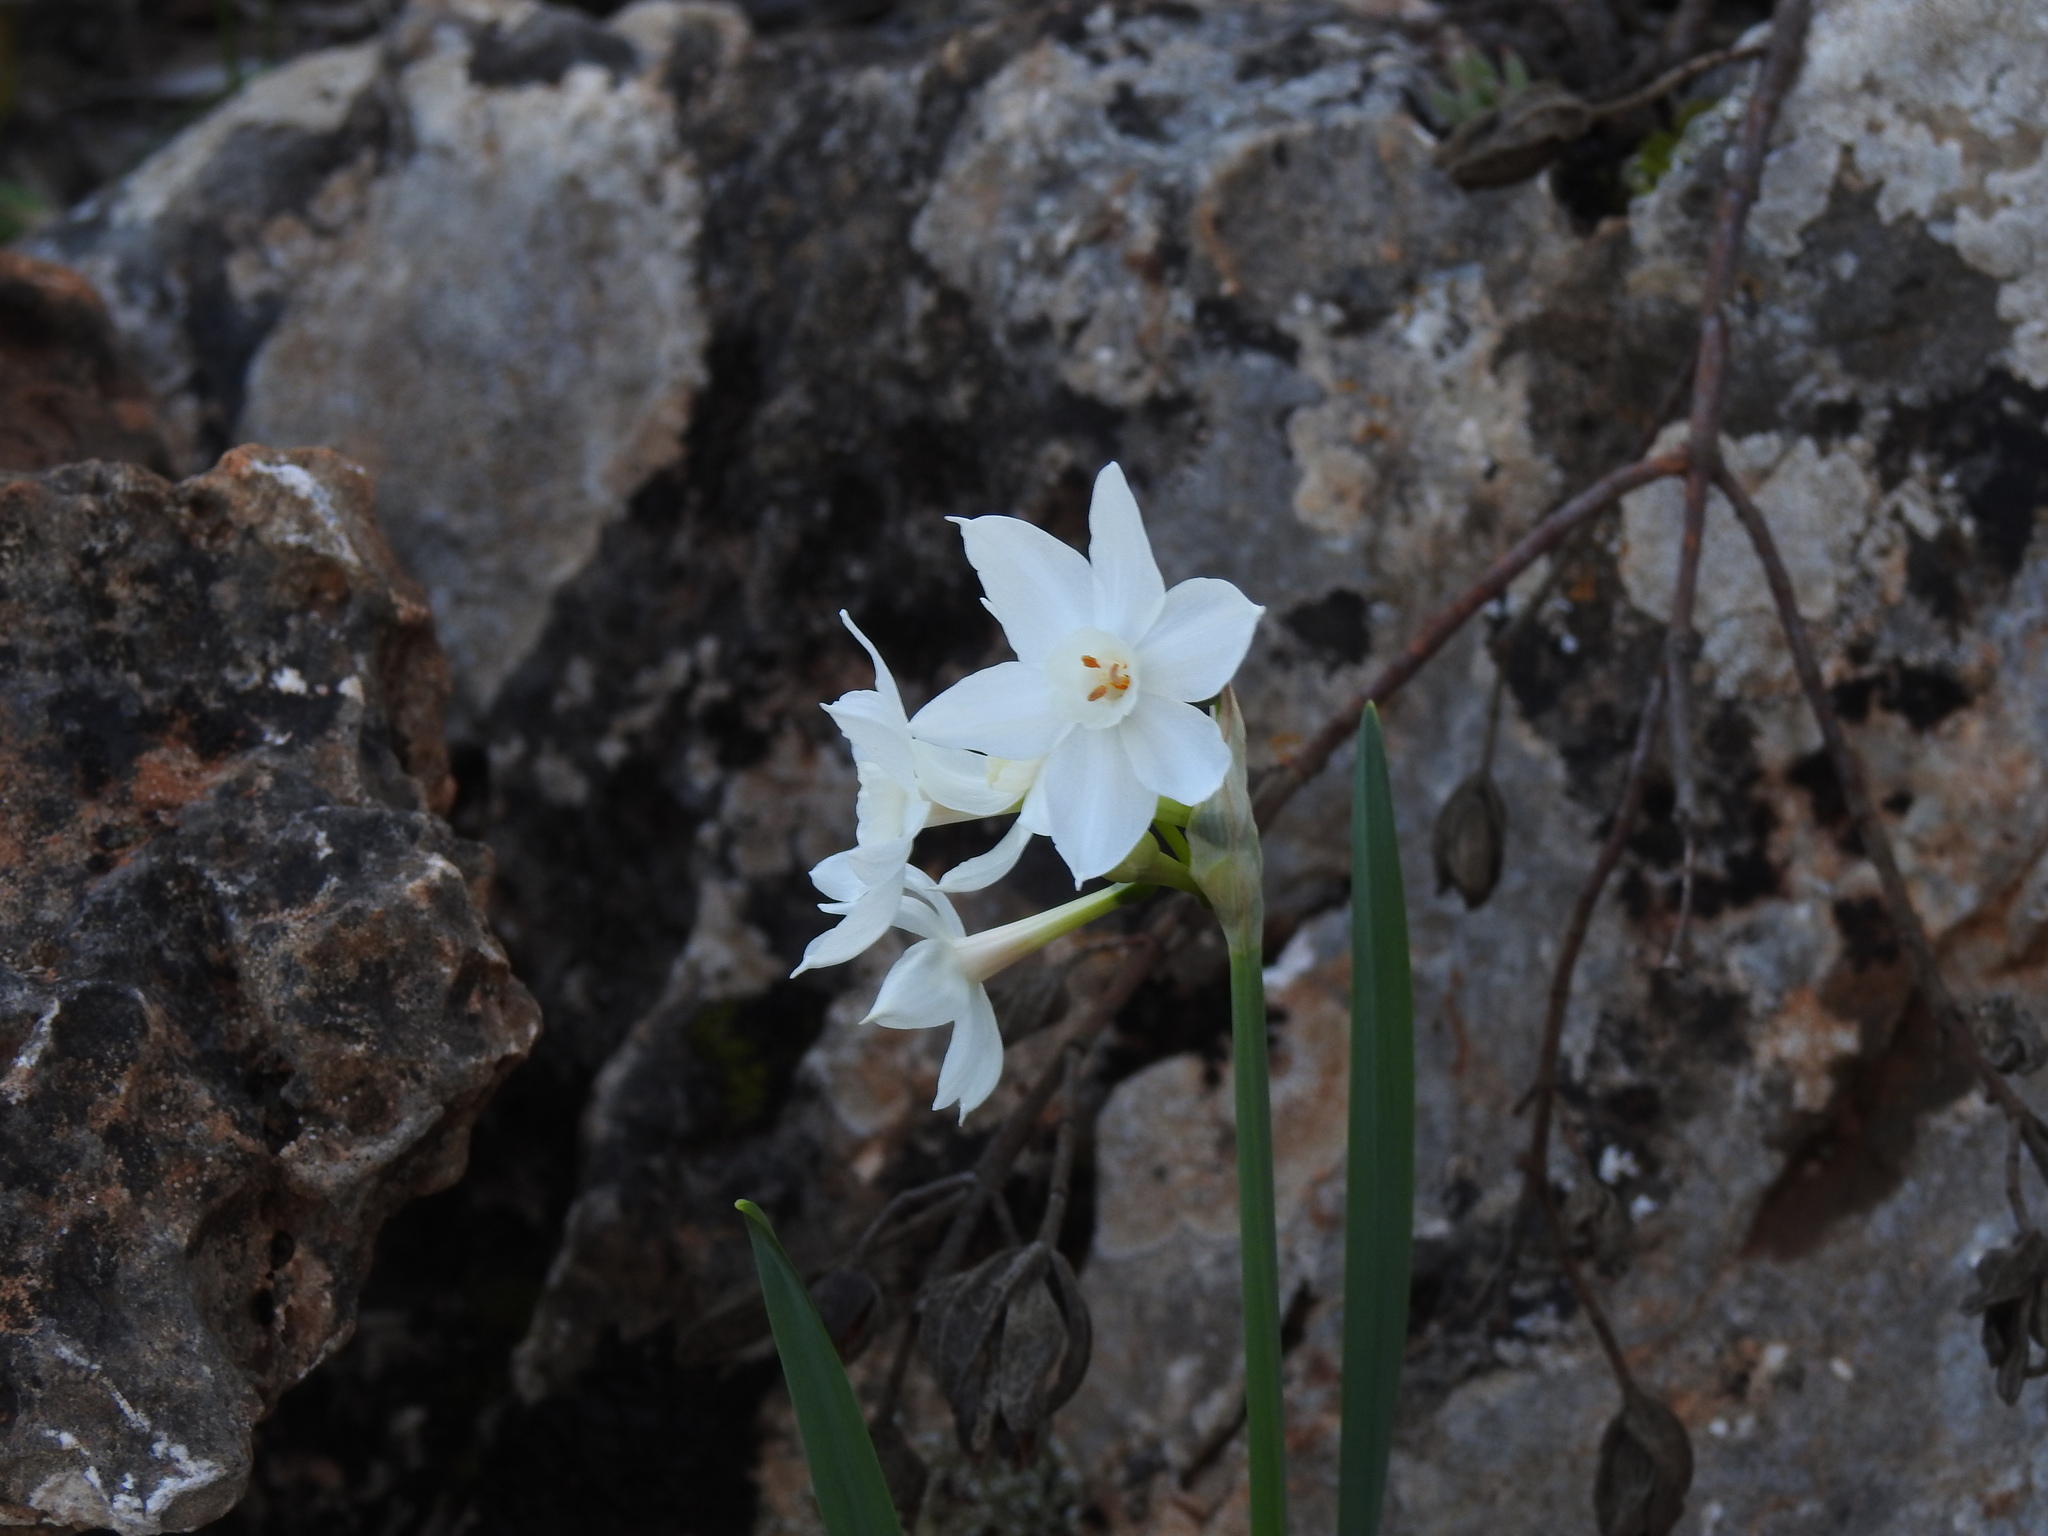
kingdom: Plantae
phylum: Tracheophyta
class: Liliopsida
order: Asparagales
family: Amaryllidaceae
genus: Narcissus
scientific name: Narcissus papyraceus
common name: Paper-white daffodil
